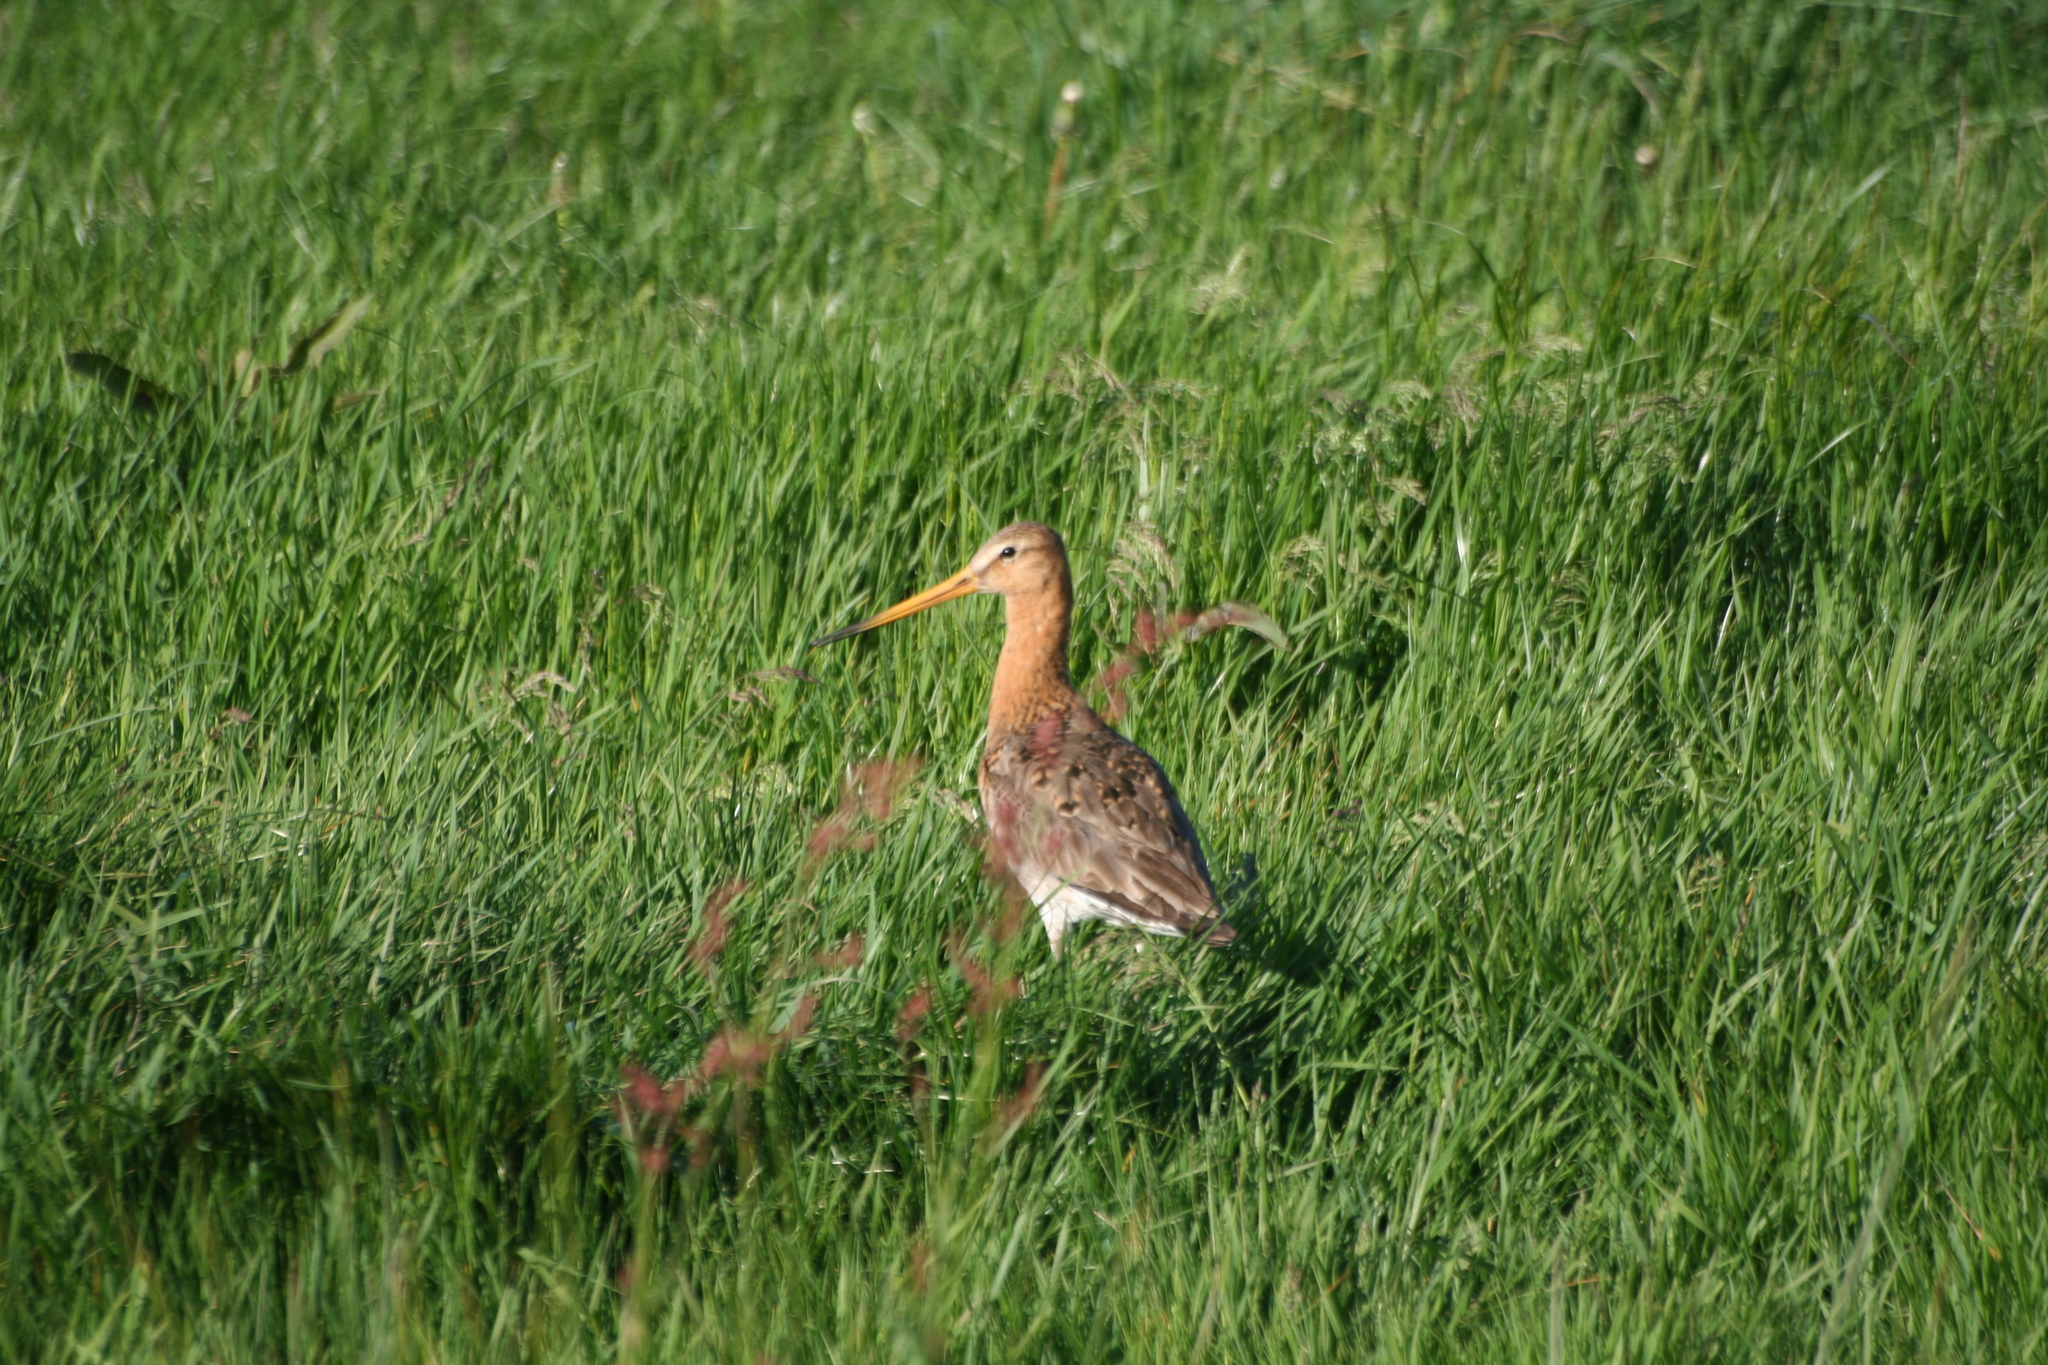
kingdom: Animalia
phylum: Chordata
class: Aves
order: Charadriiformes
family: Scolopacidae
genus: Limosa
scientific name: Limosa limosa
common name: Black-tailed godwit
